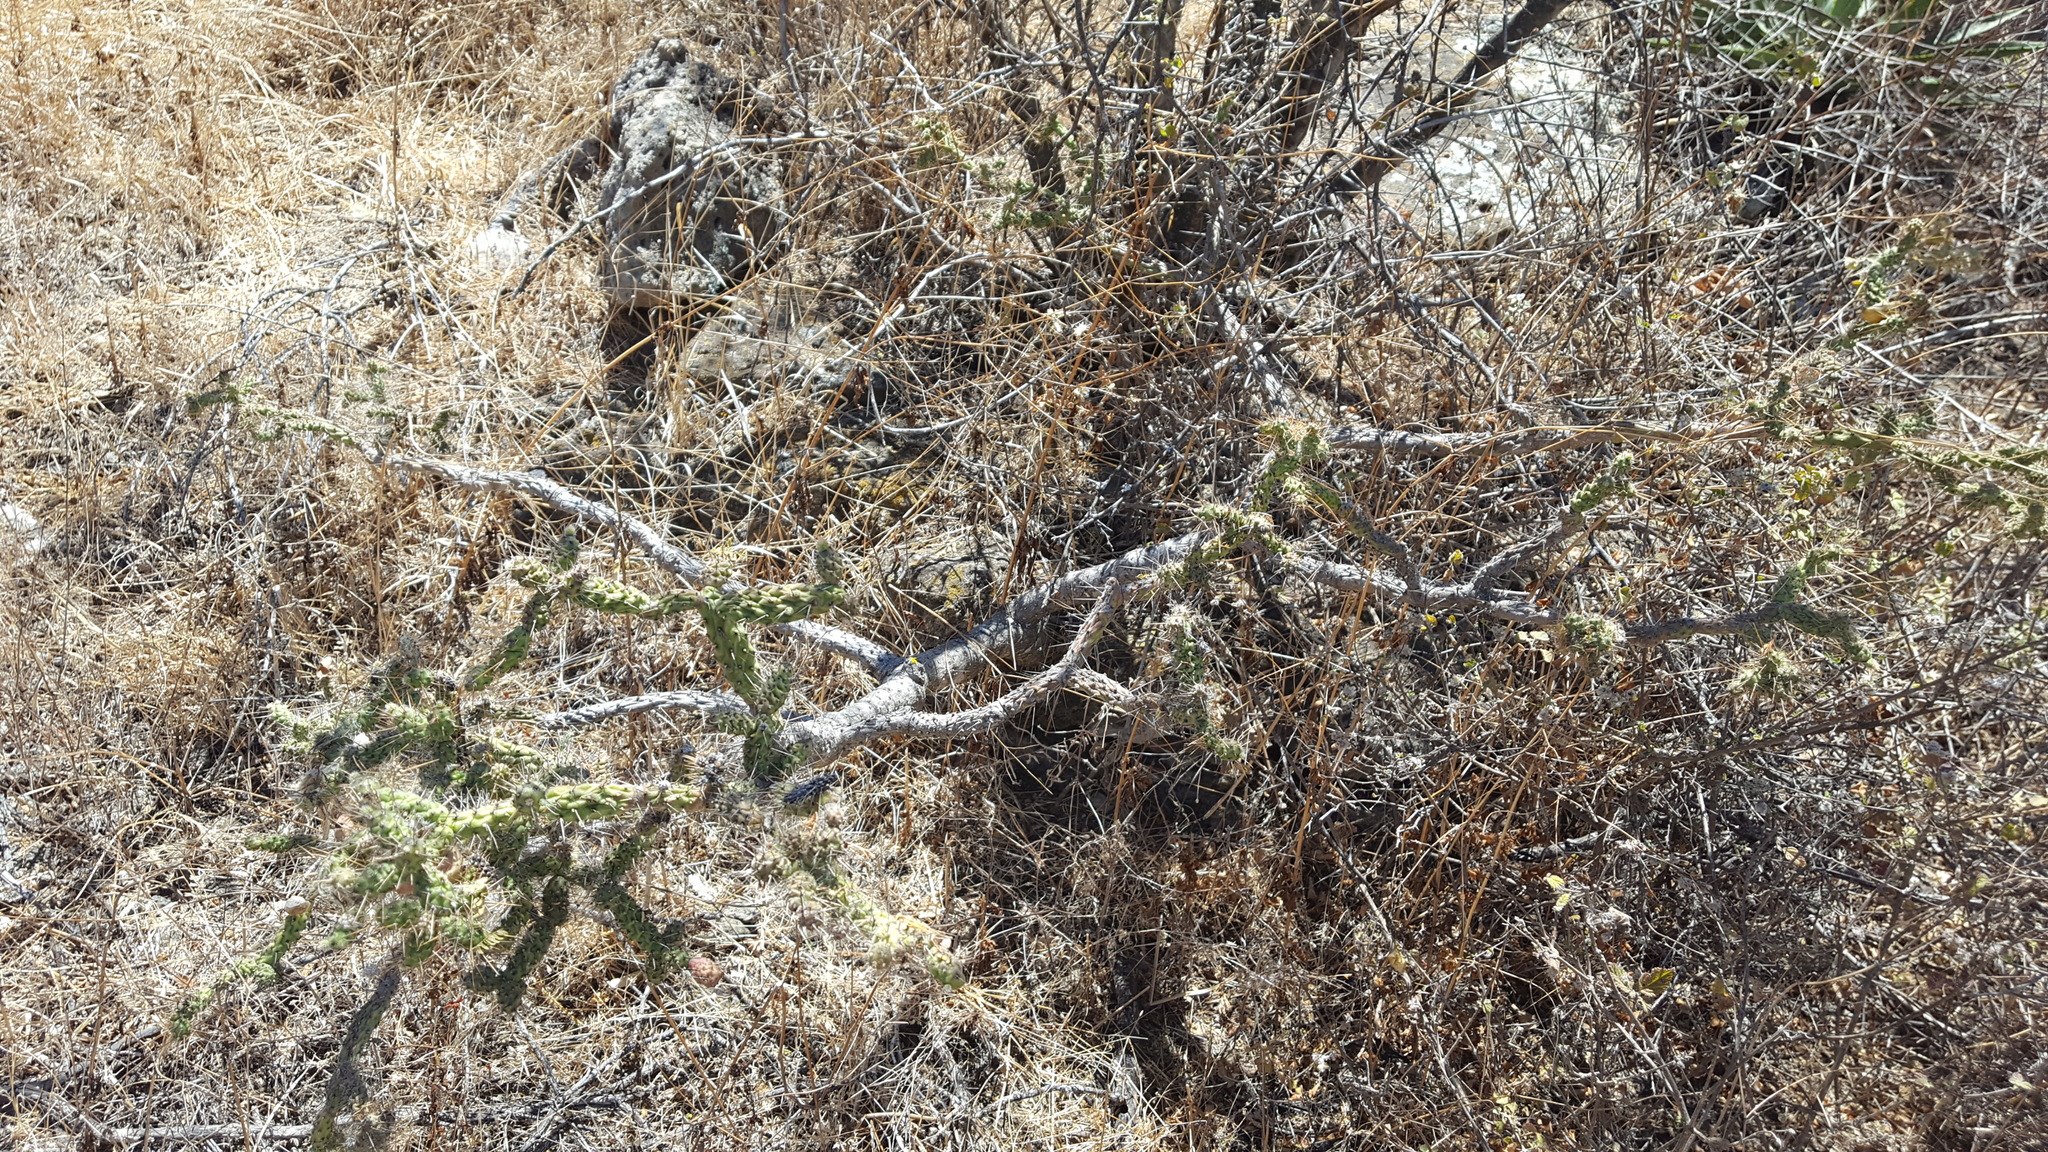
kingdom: Plantae
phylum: Tracheophyta
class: Magnoliopsida
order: Caryophyllales
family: Cactaceae
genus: Opuntia
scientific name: Opuntia
